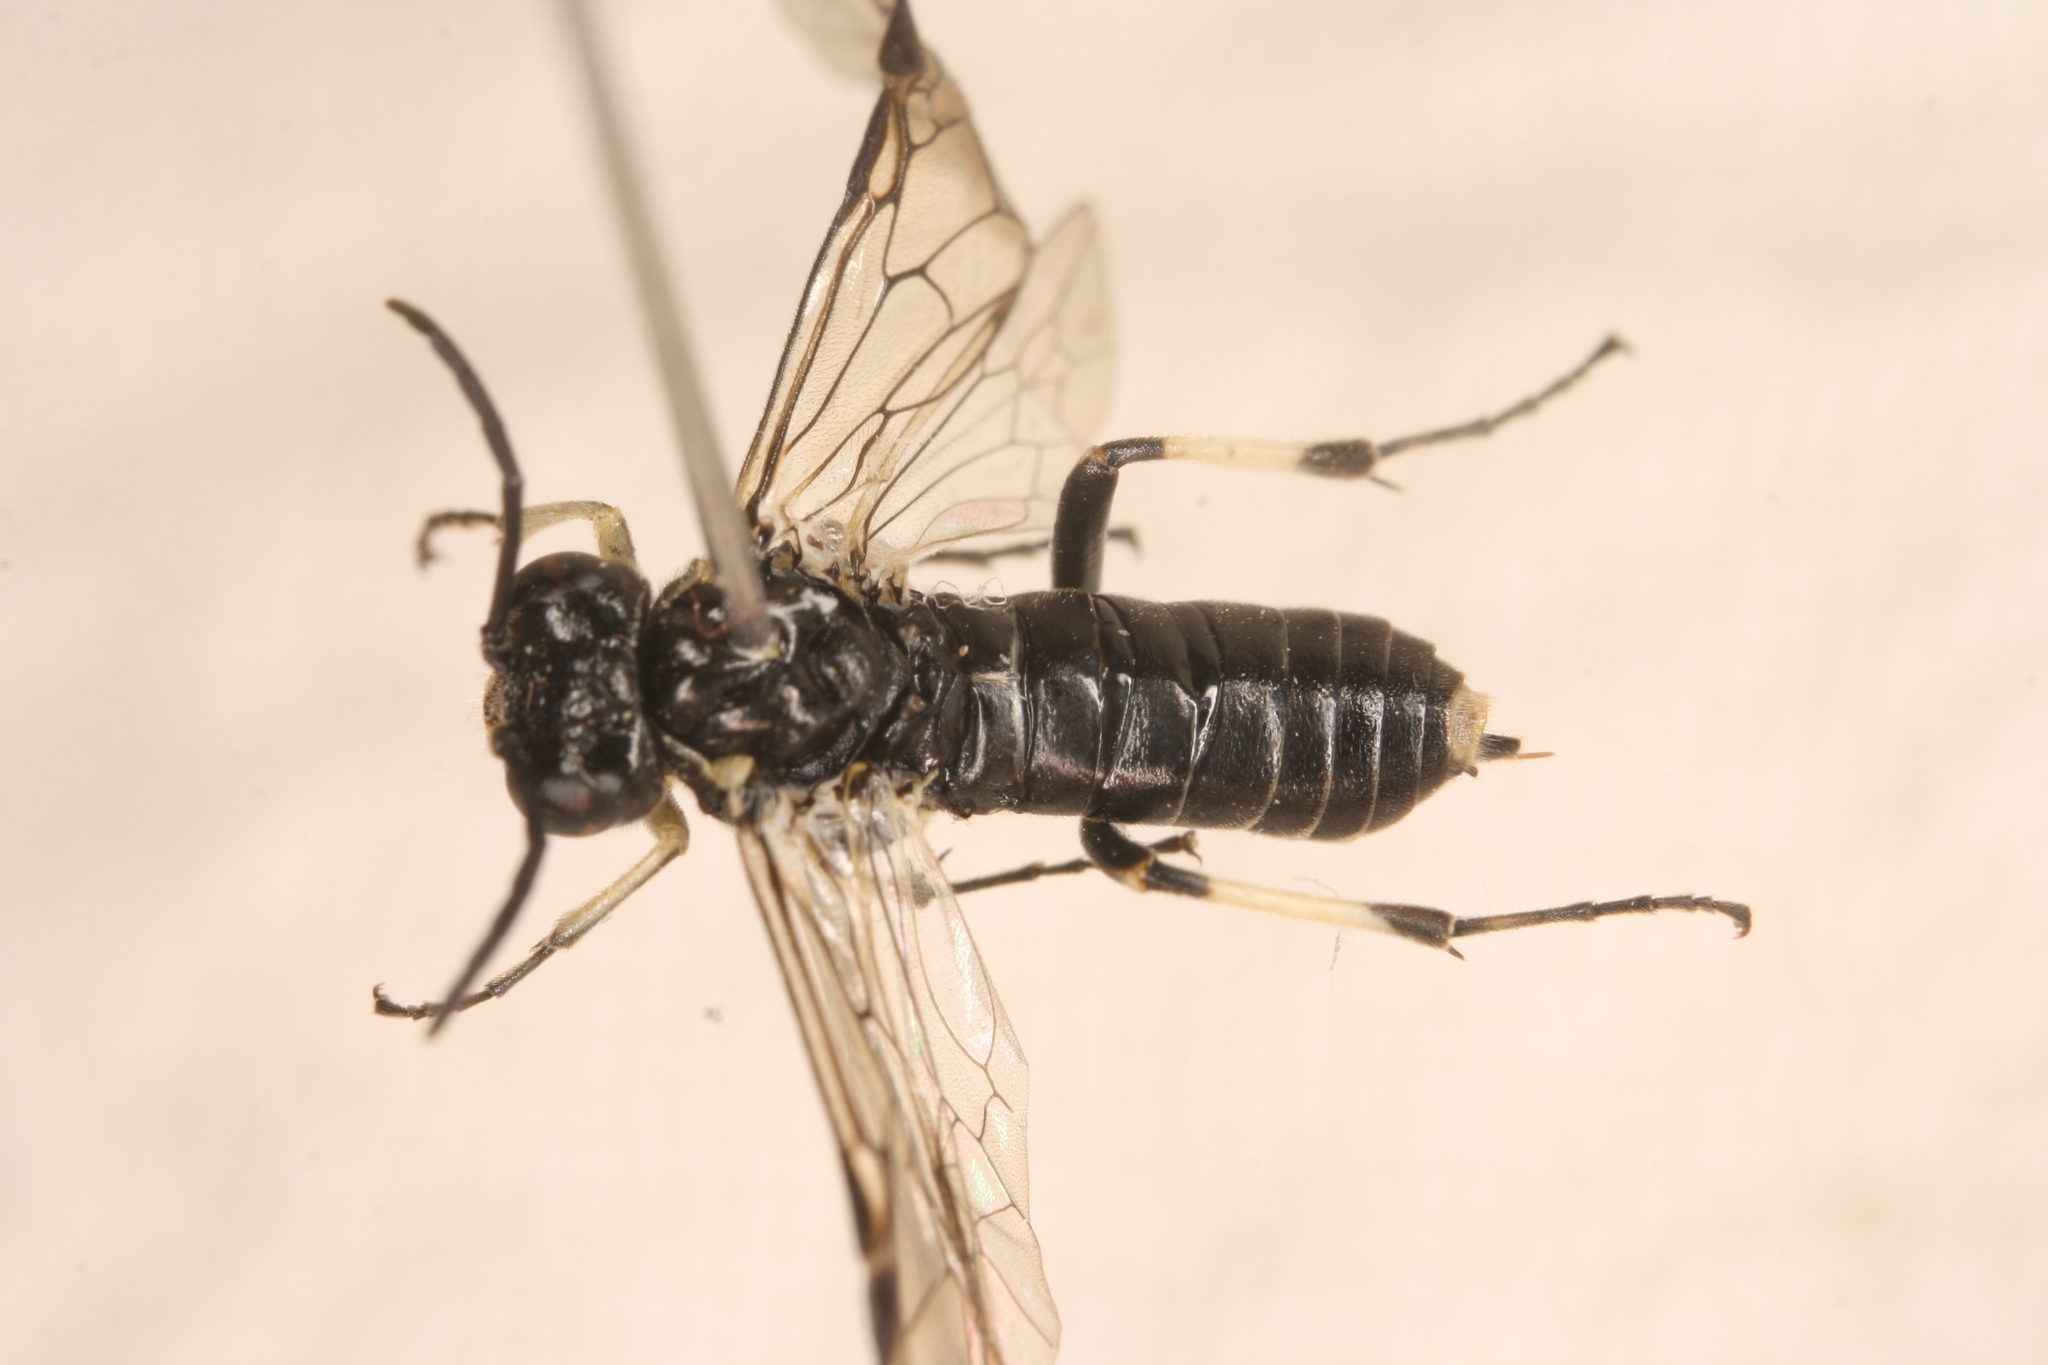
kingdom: Animalia
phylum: Arthropoda
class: Insecta
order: Hymenoptera
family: Tenthredinidae
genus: Macrophya
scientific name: Macrophya albipuncta
